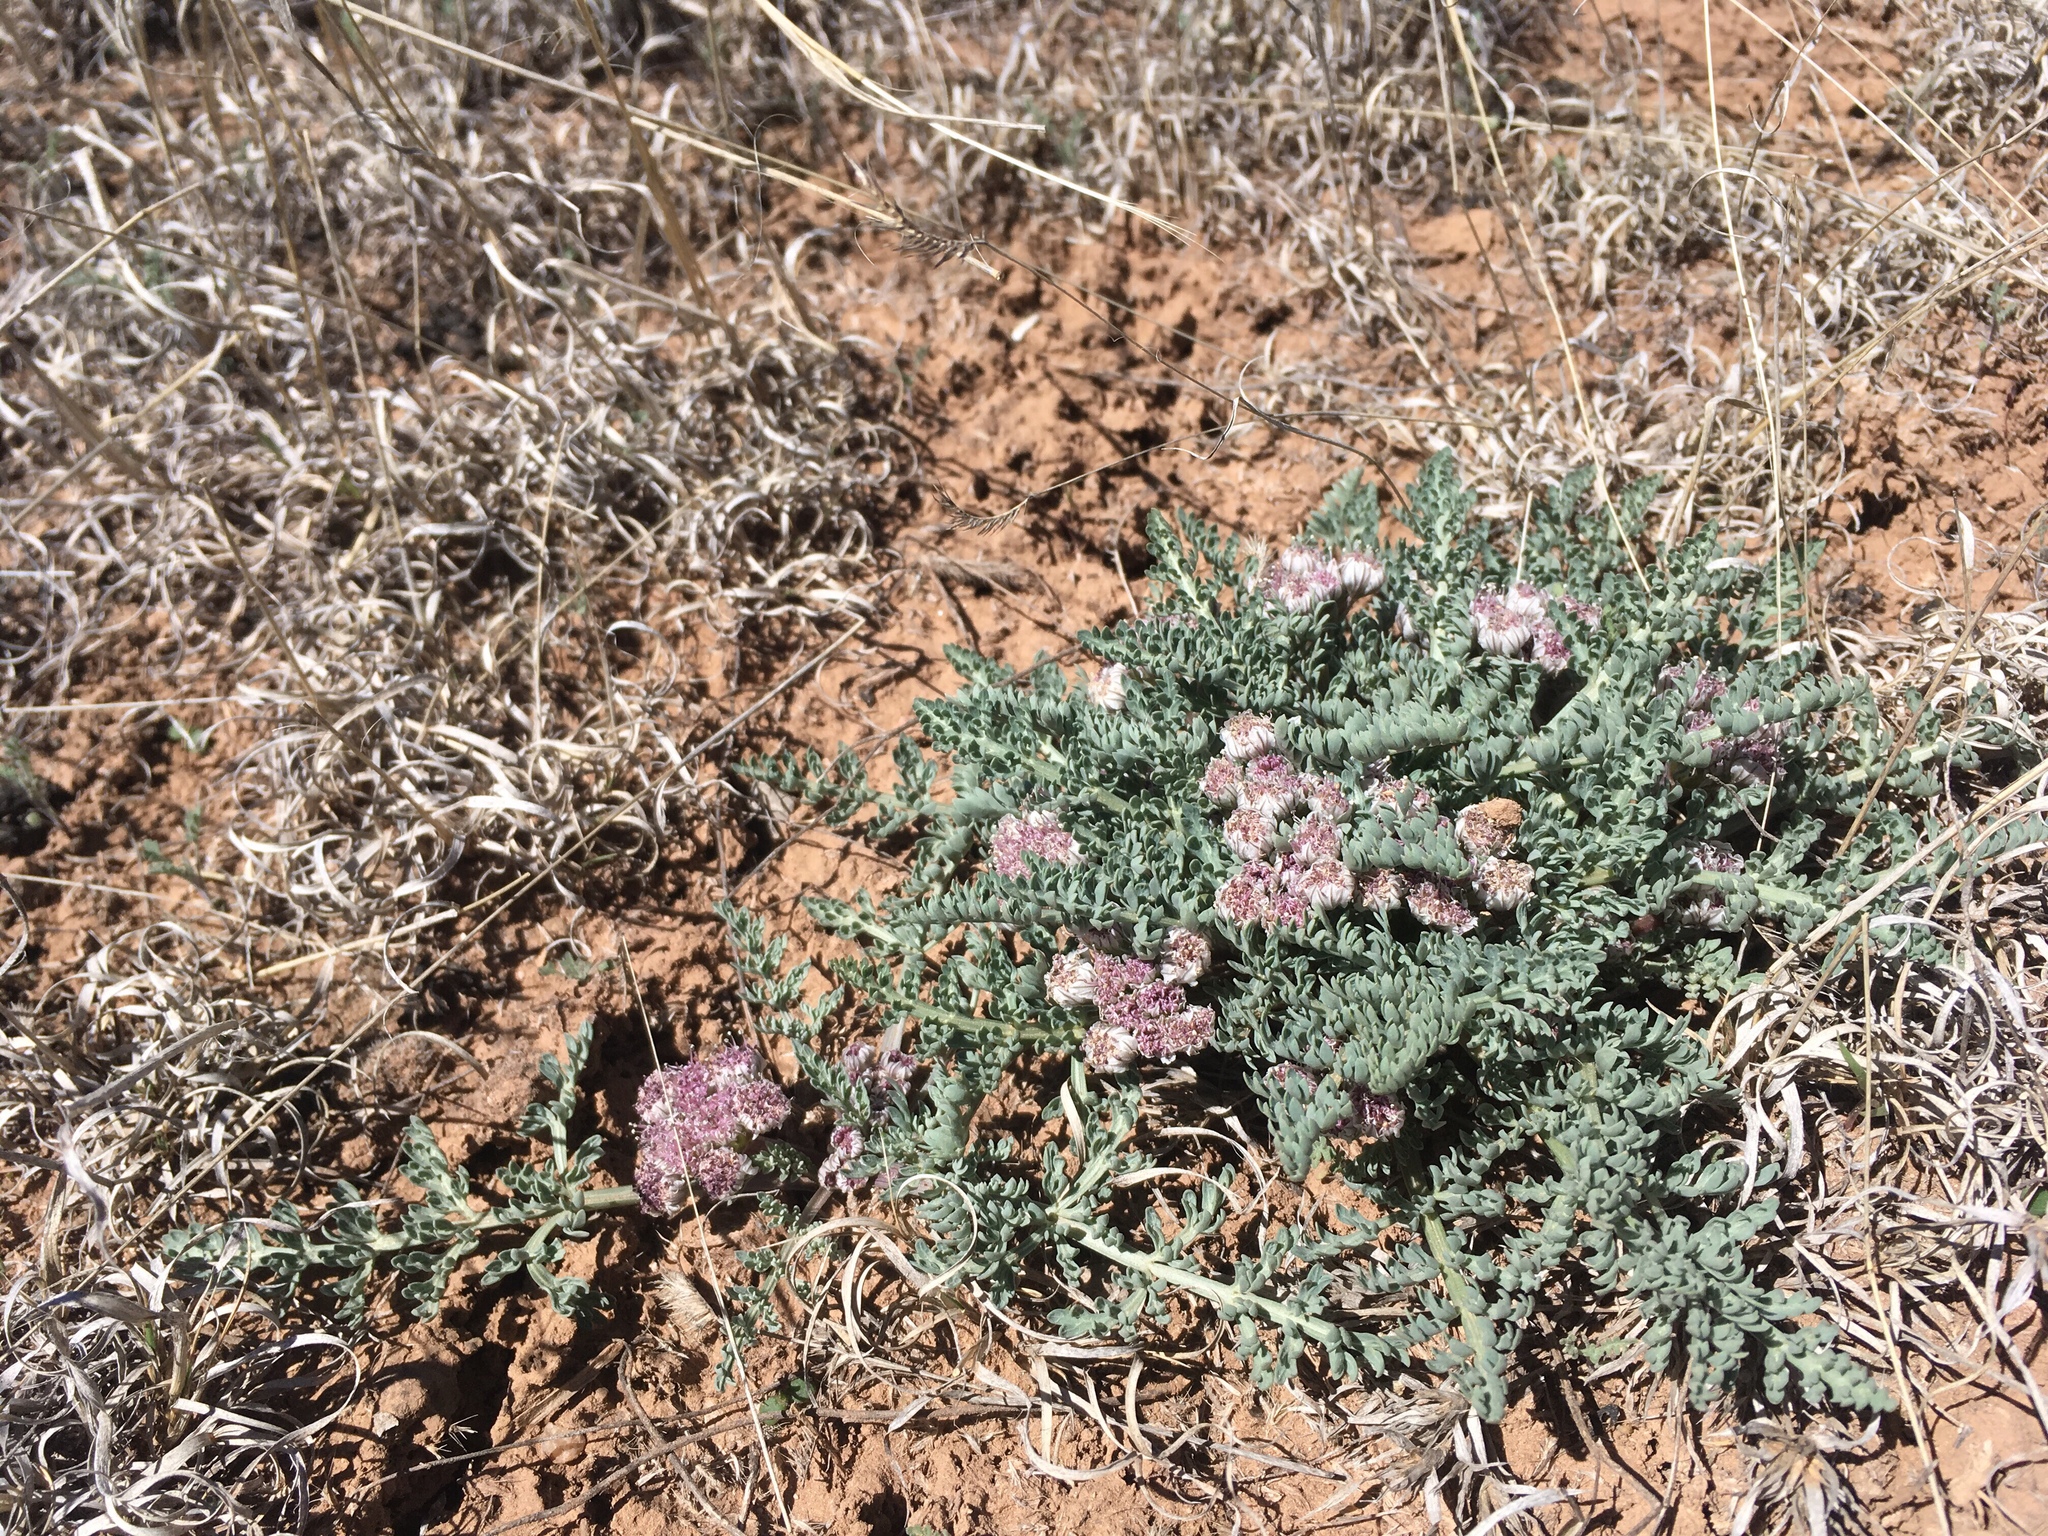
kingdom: Plantae
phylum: Tracheophyta
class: Magnoliopsida
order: Apiales
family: Apiaceae
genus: Vesper
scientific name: Vesper constancei
